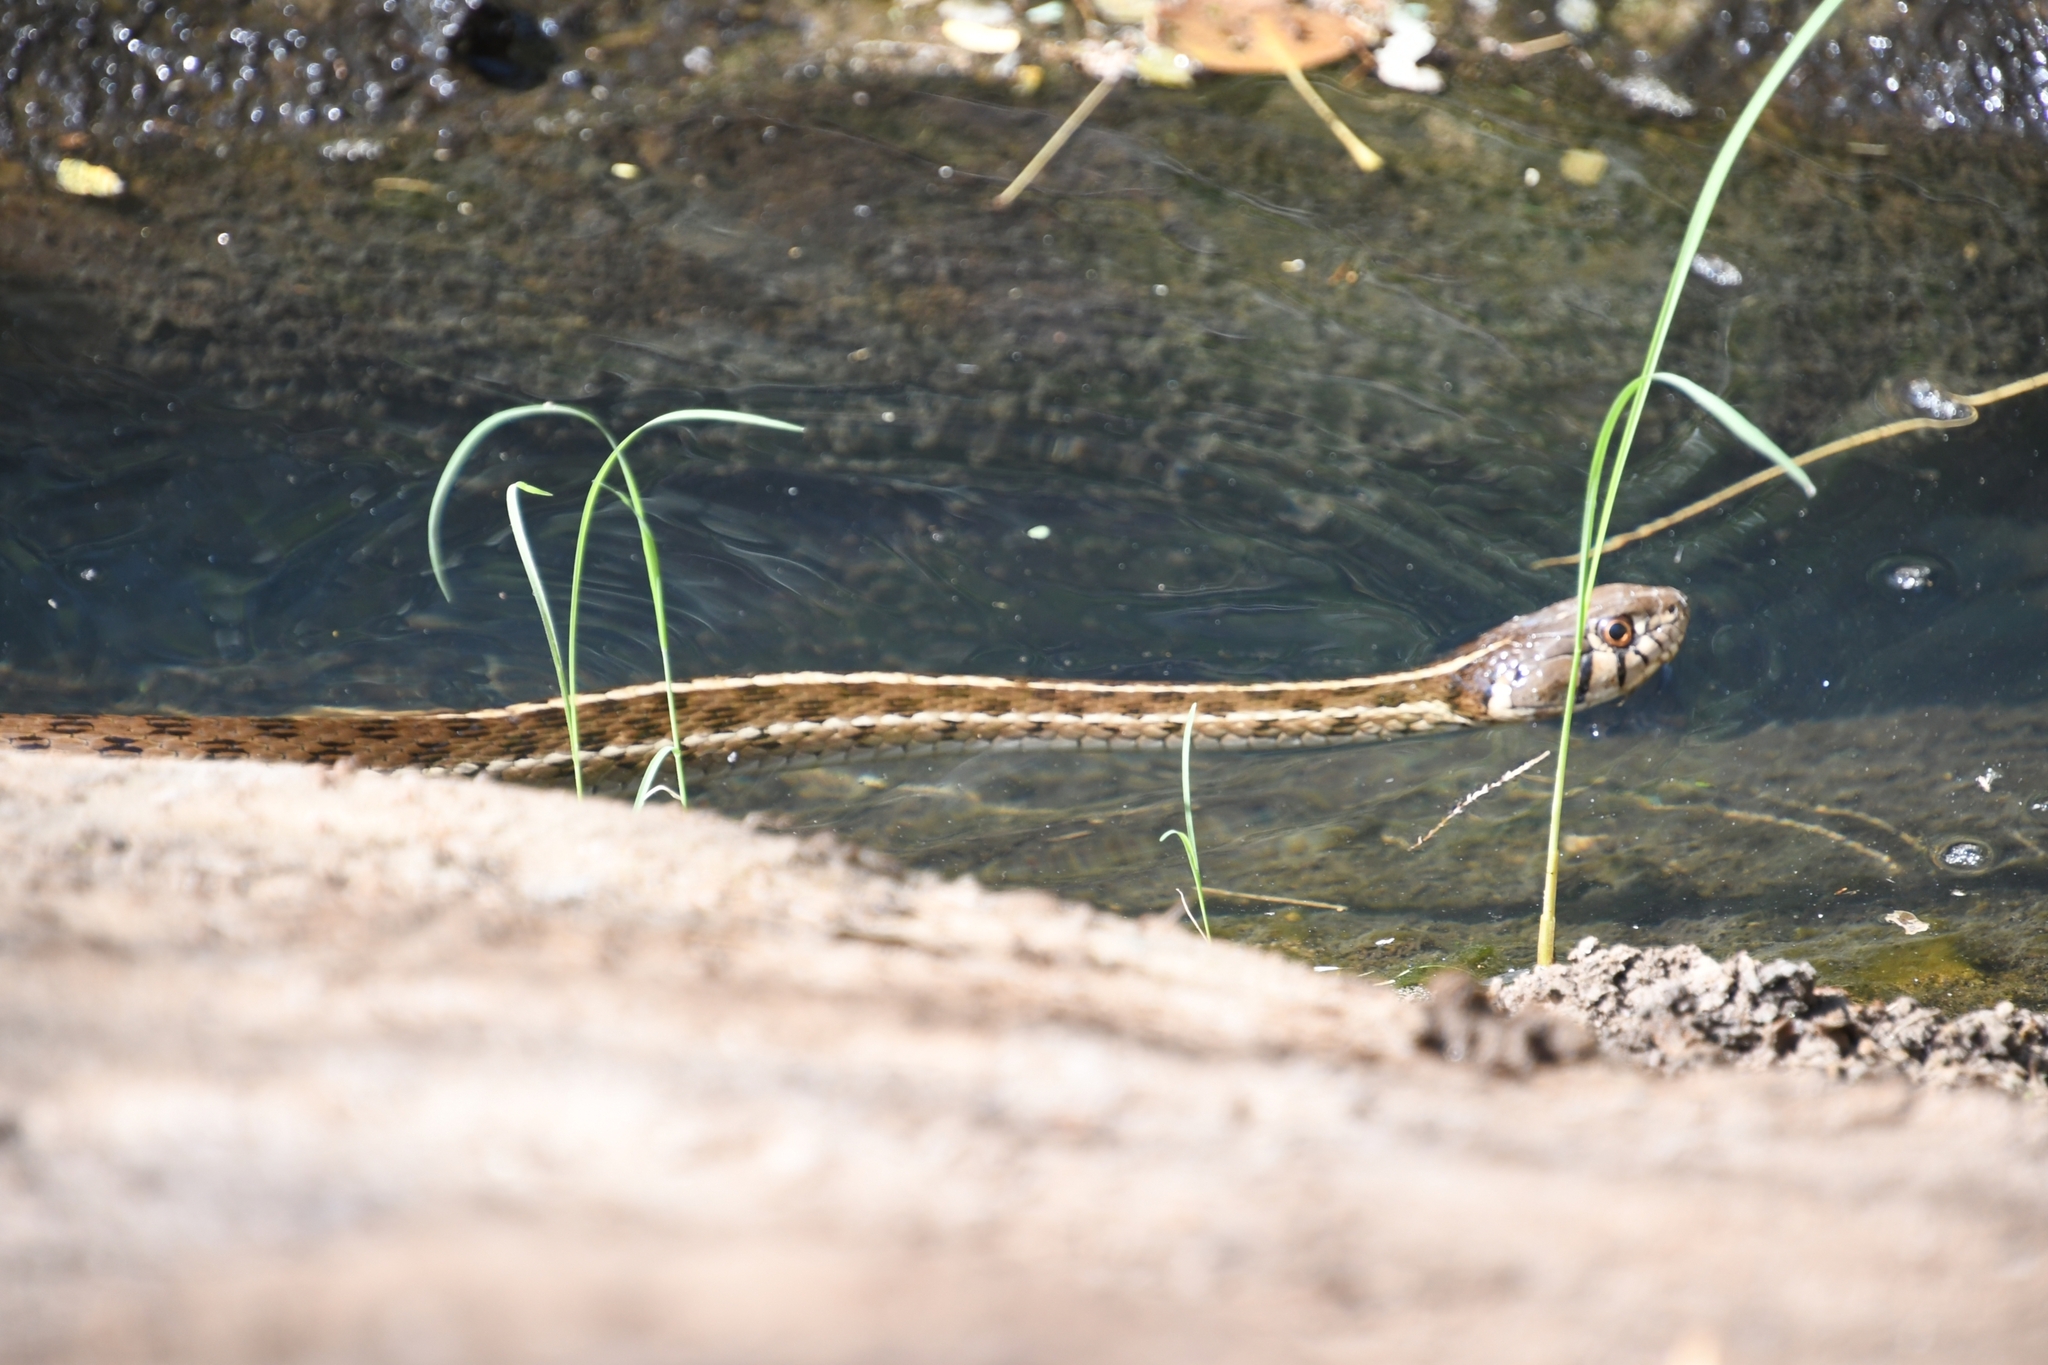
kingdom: Animalia
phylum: Chordata
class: Squamata
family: Colubridae
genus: Thamnophis
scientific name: Thamnophis marcianus
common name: Checkered garter snake
